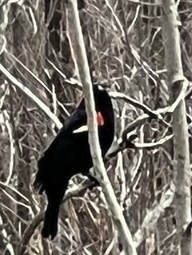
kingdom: Animalia
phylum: Chordata
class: Aves
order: Passeriformes
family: Icteridae
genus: Agelaius
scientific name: Agelaius phoeniceus
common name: Red-winged blackbird
